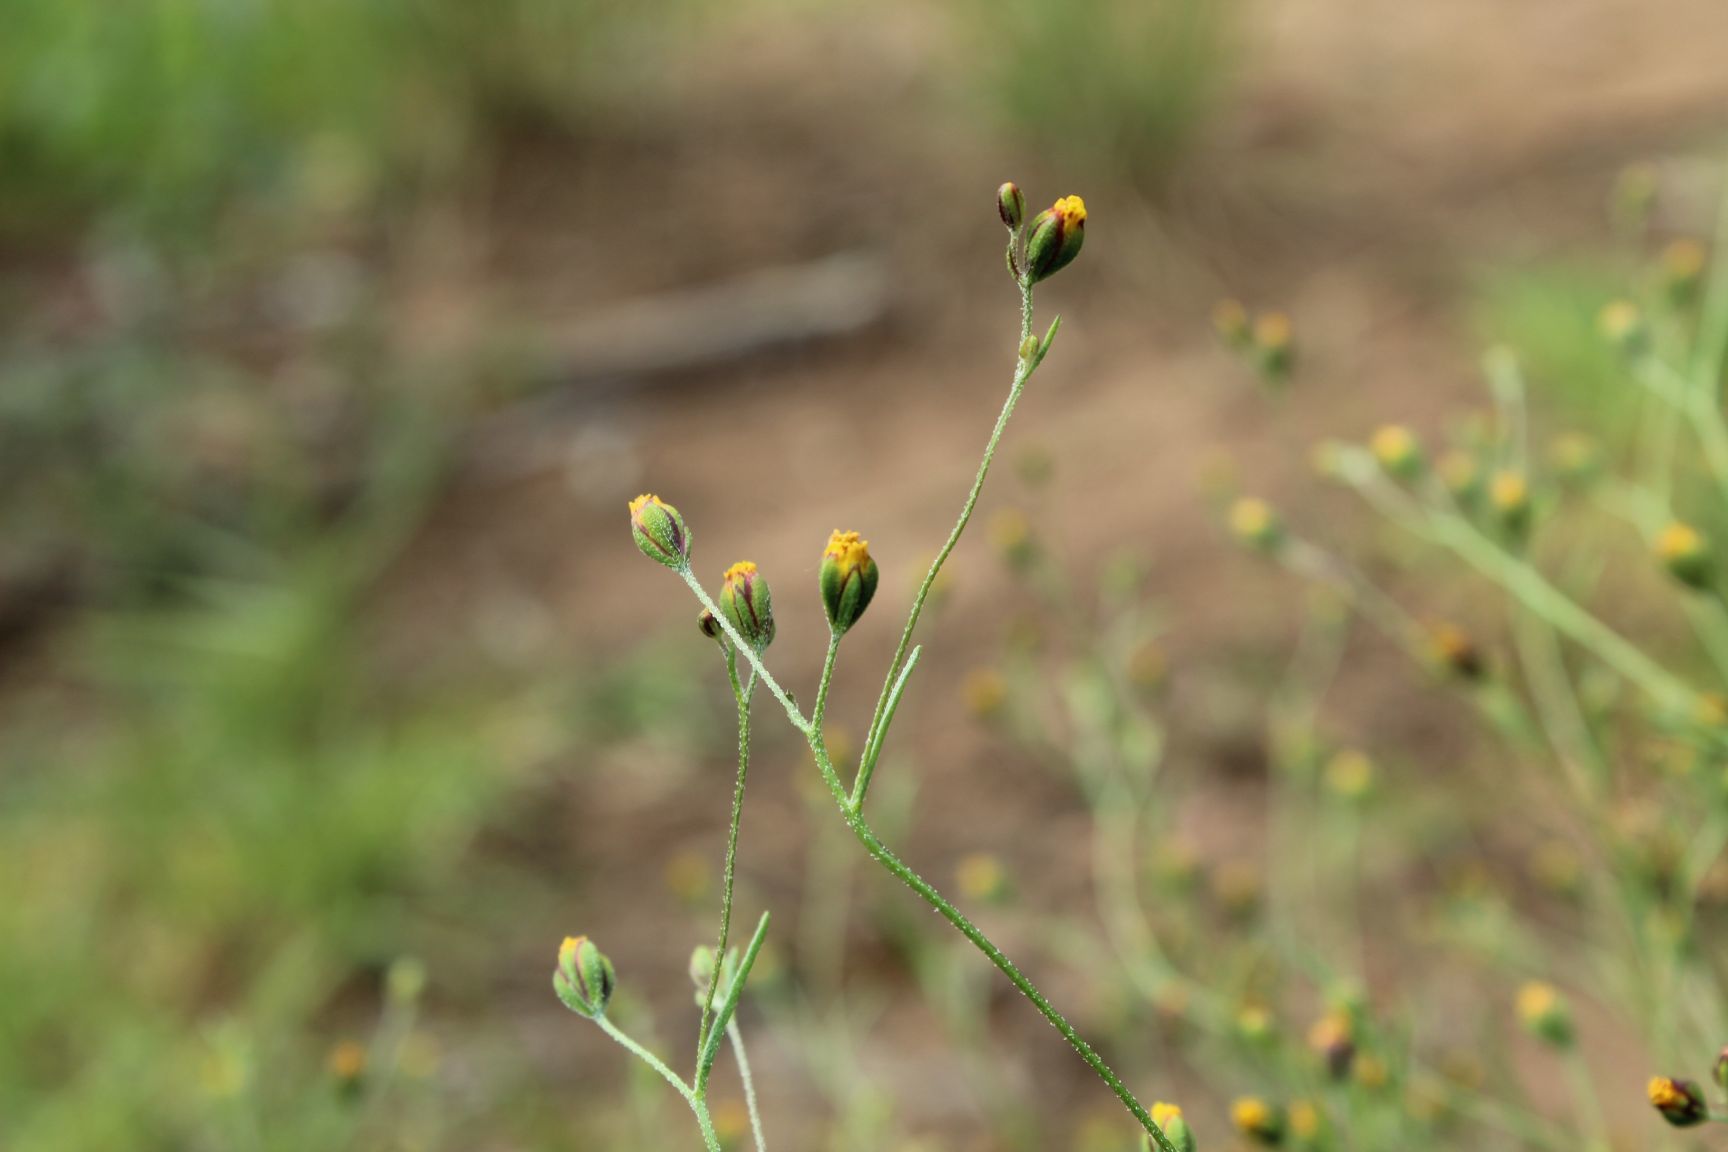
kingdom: Plantae
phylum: Tracheophyta
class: Magnoliopsida
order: Asterales
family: Asteraceae
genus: Schkuhria
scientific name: Schkuhria pinnata
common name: Dwarf marigold
